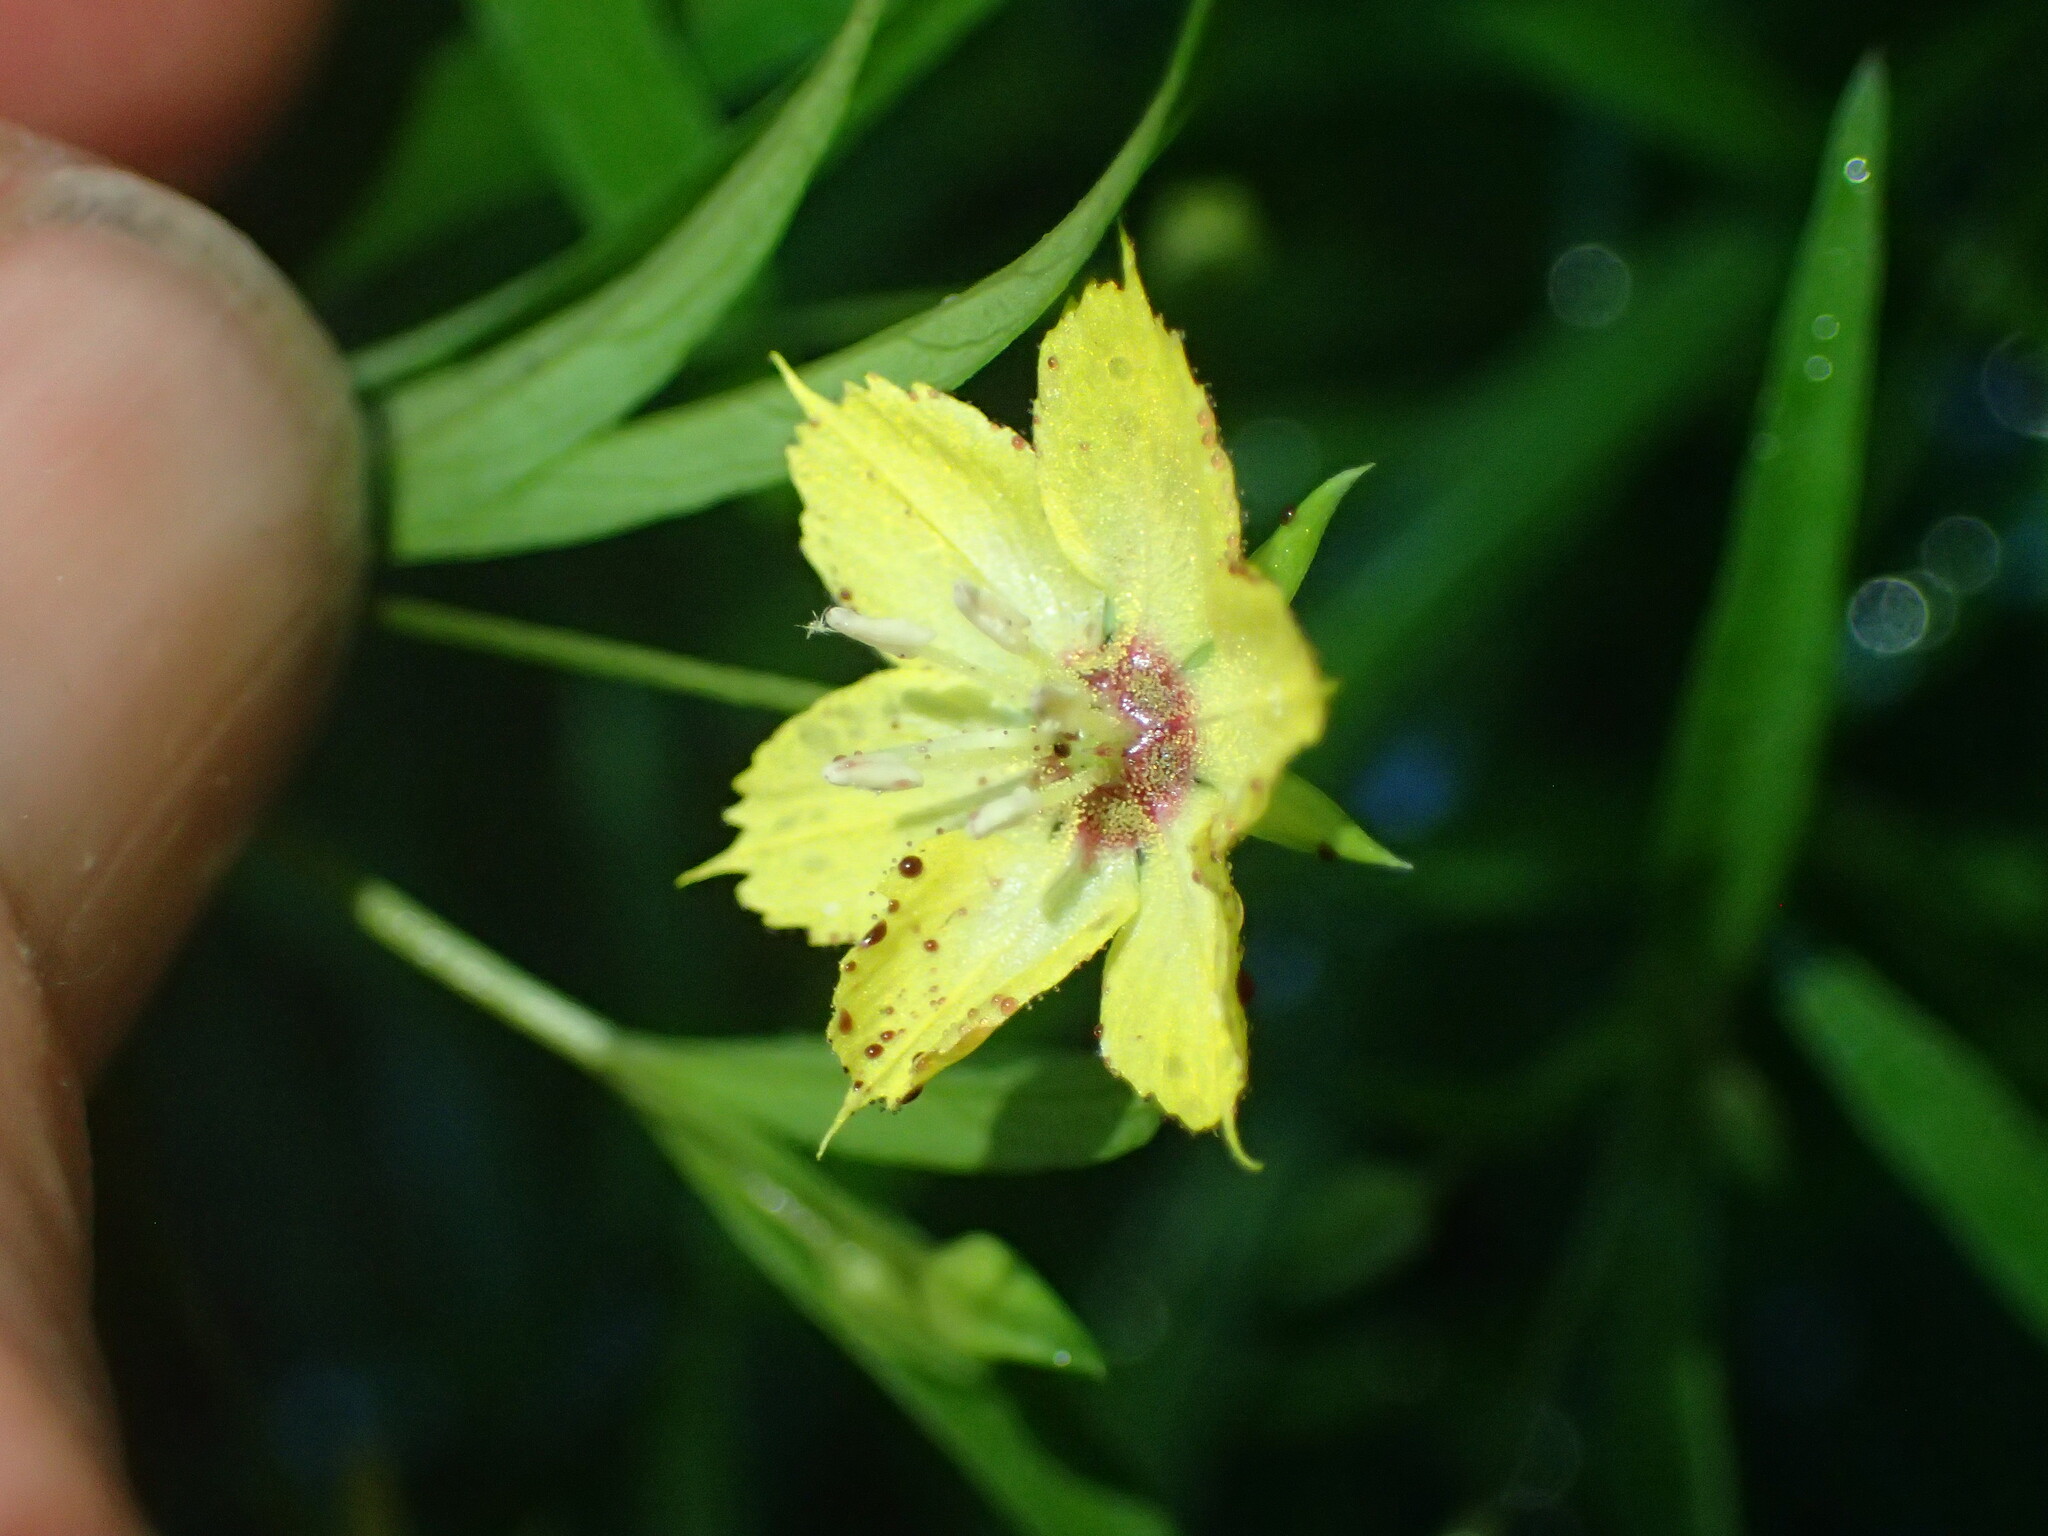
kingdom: Plantae
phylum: Tracheophyta
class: Magnoliopsida
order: Ericales
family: Primulaceae
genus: Lysimachia
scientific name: Lysimachia lanceolata
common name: Lance-leaved loosestrife
